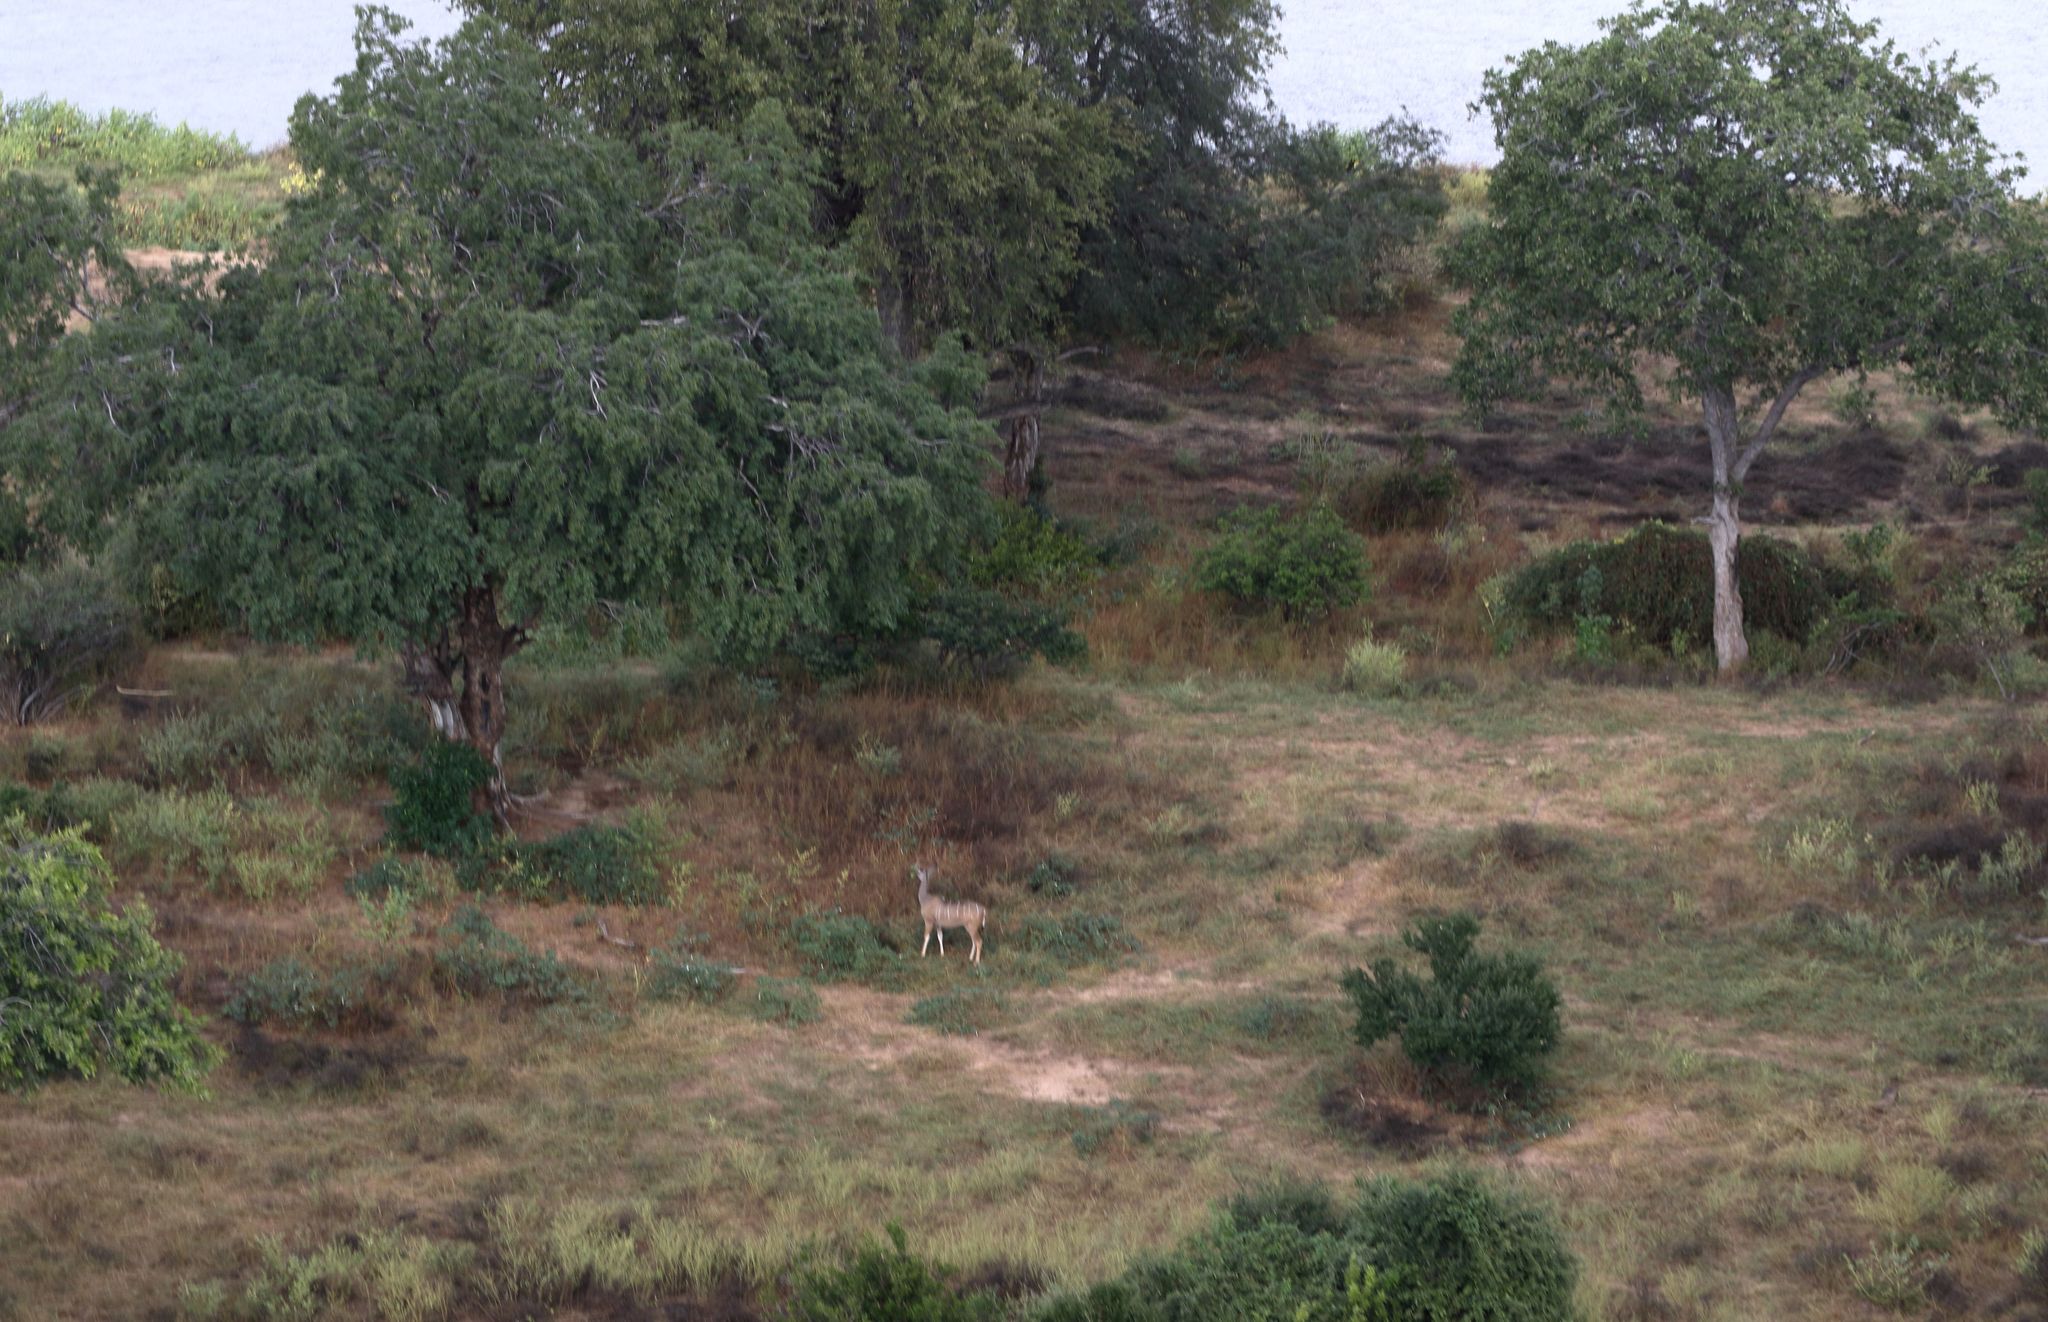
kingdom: Animalia
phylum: Chordata
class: Mammalia
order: Artiodactyla
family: Bovidae
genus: Tragelaphus
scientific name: Tragelaphus strepsiceros
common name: Greater kudu
